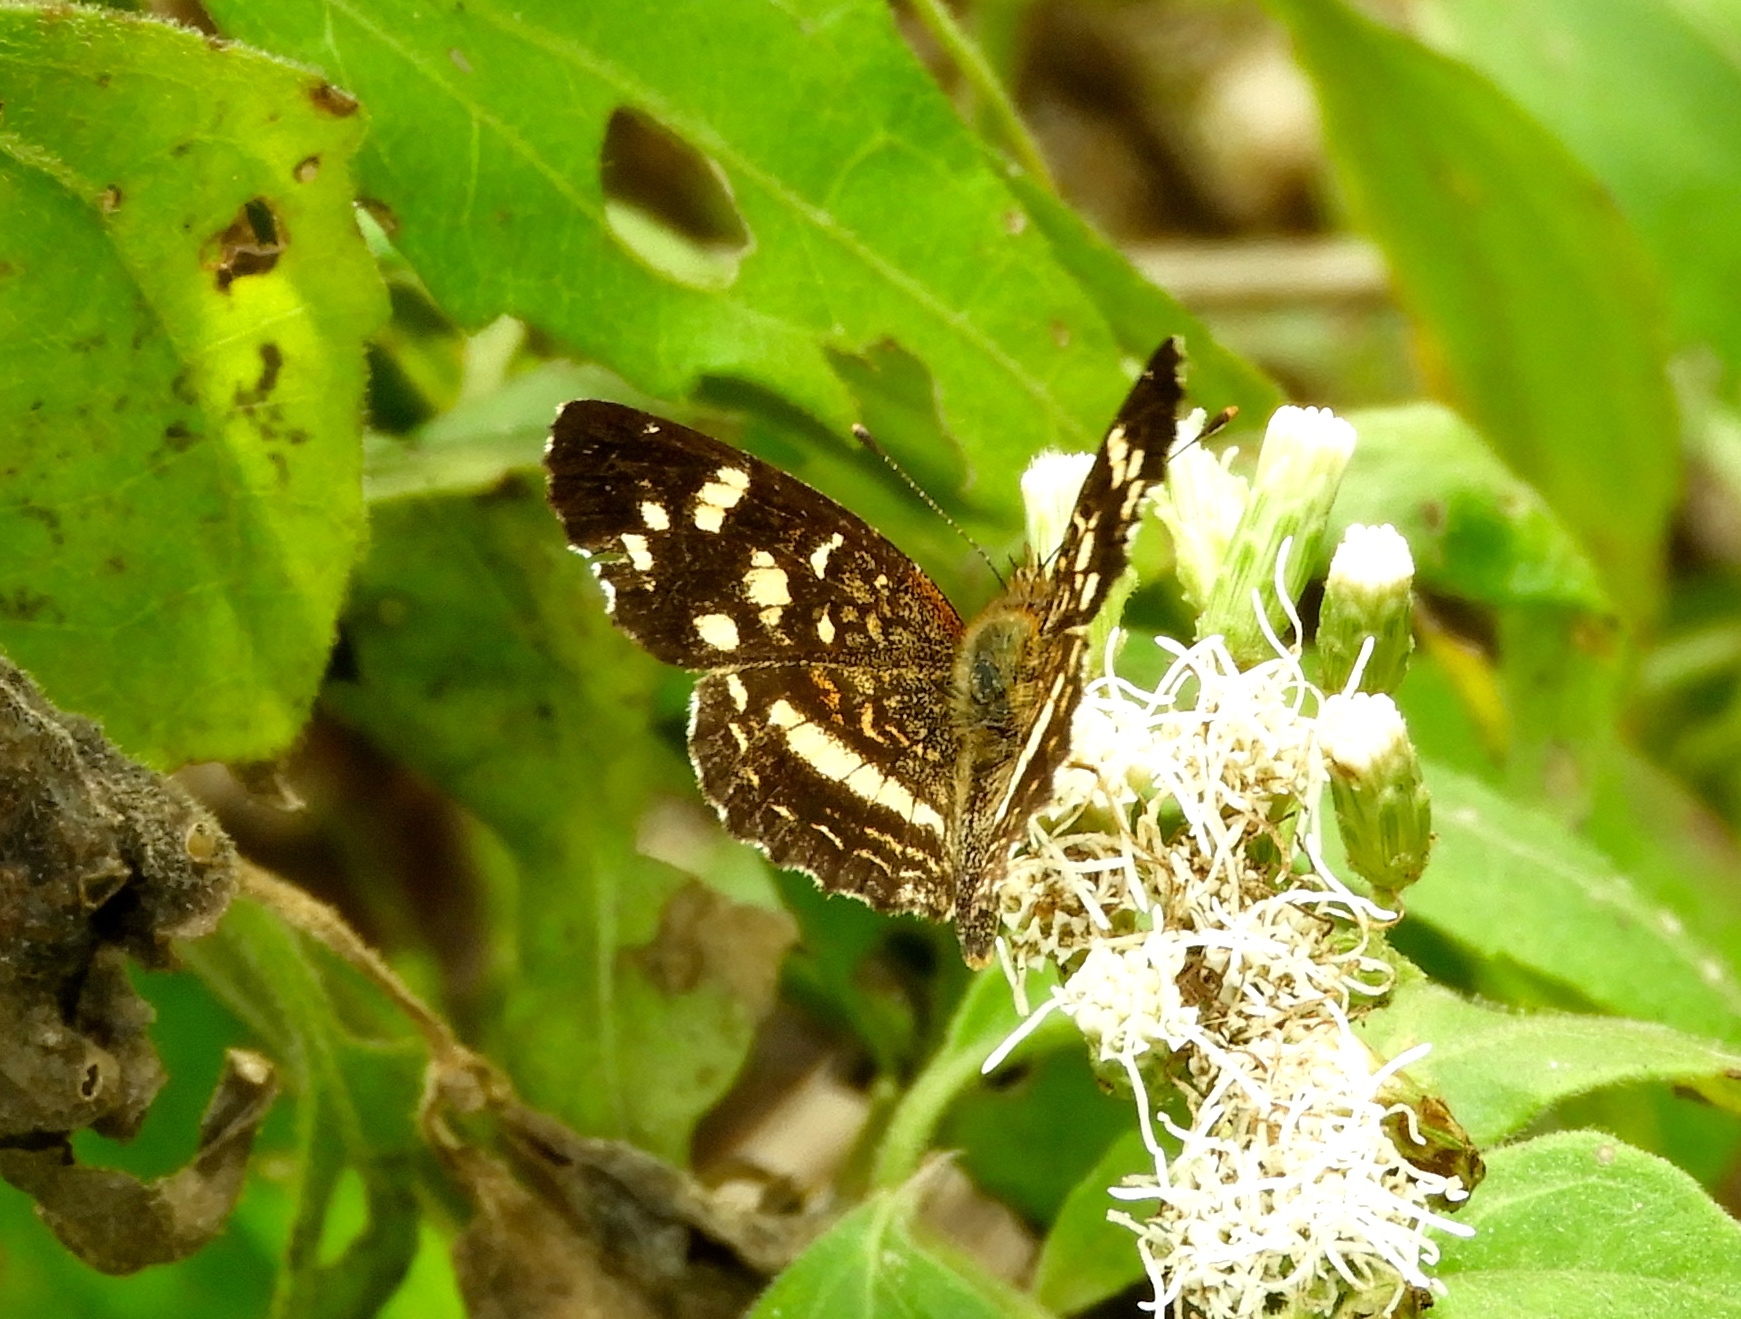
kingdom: Animalia
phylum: Arthropoda
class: Insecta
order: Lepidoptera
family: Nymphalidae
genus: Anthanassa
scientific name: Anthanassa tulcis
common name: Pale-banded crescent
